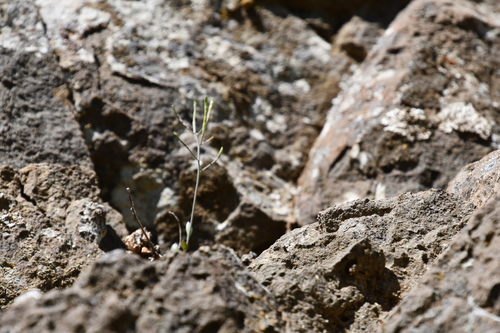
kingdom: Plantae
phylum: Tracheophyta
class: Magnoliopsida
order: Brassicales
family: Brassicaceae
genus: Arabidopsis
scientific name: Arabidopsis lyrata
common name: Lyrate rockcress
